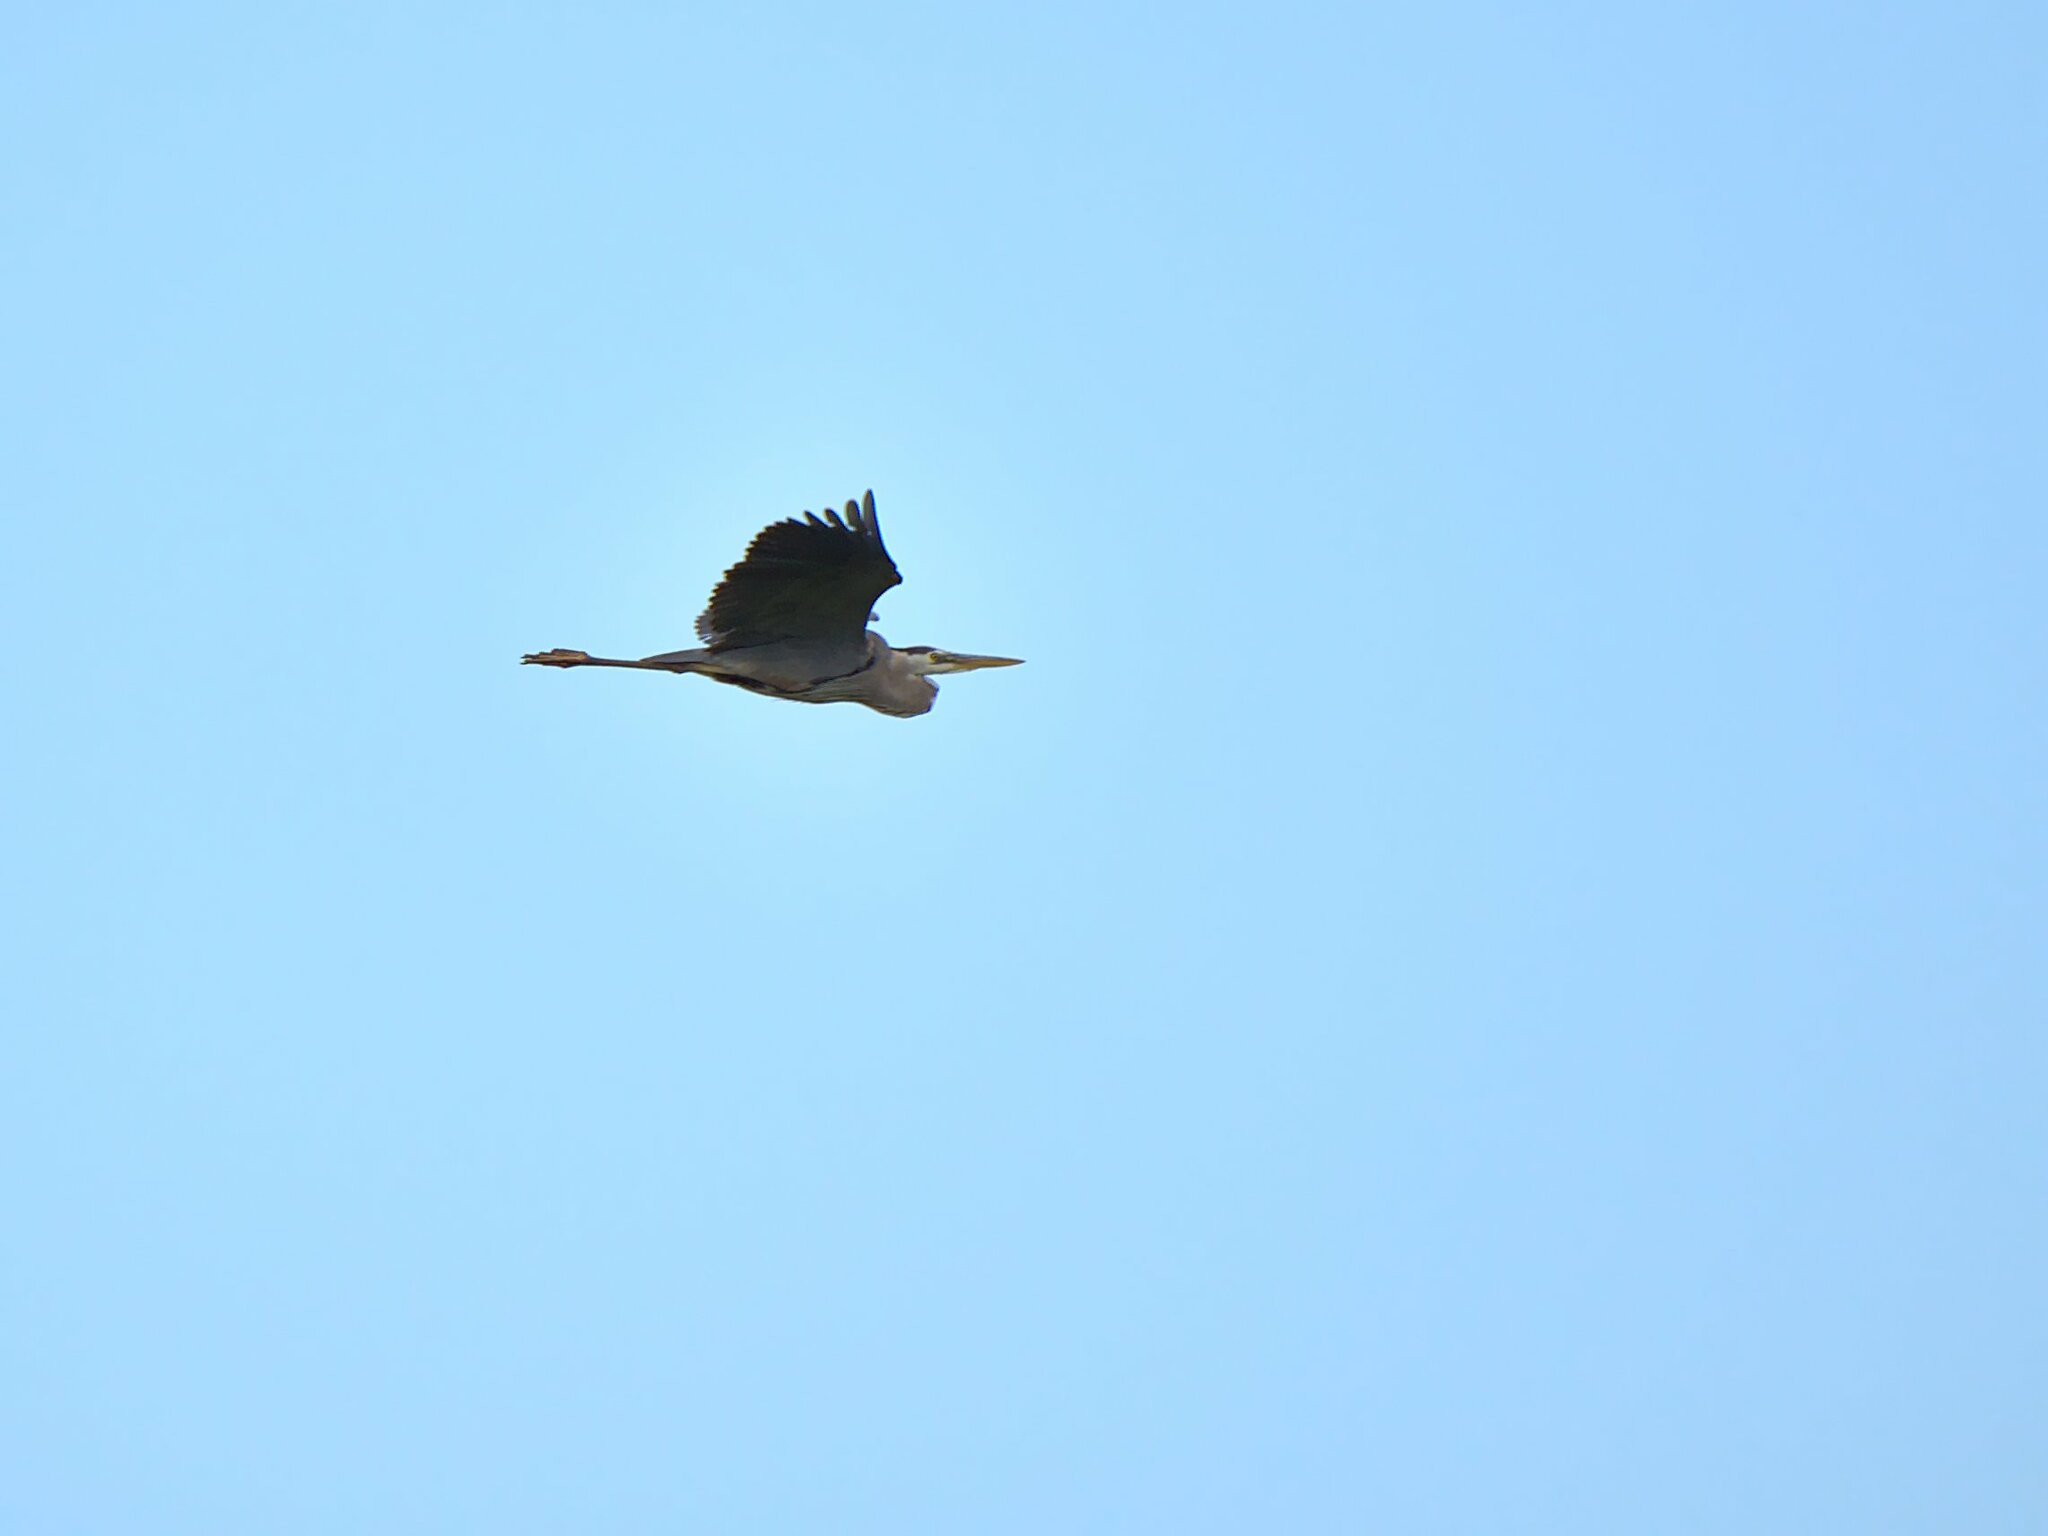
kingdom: Animalia
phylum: Chordata
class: Aves
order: Pelecaniformes
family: Ardeidae
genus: Ardea
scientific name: Ardea herodias
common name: Great blue heron
